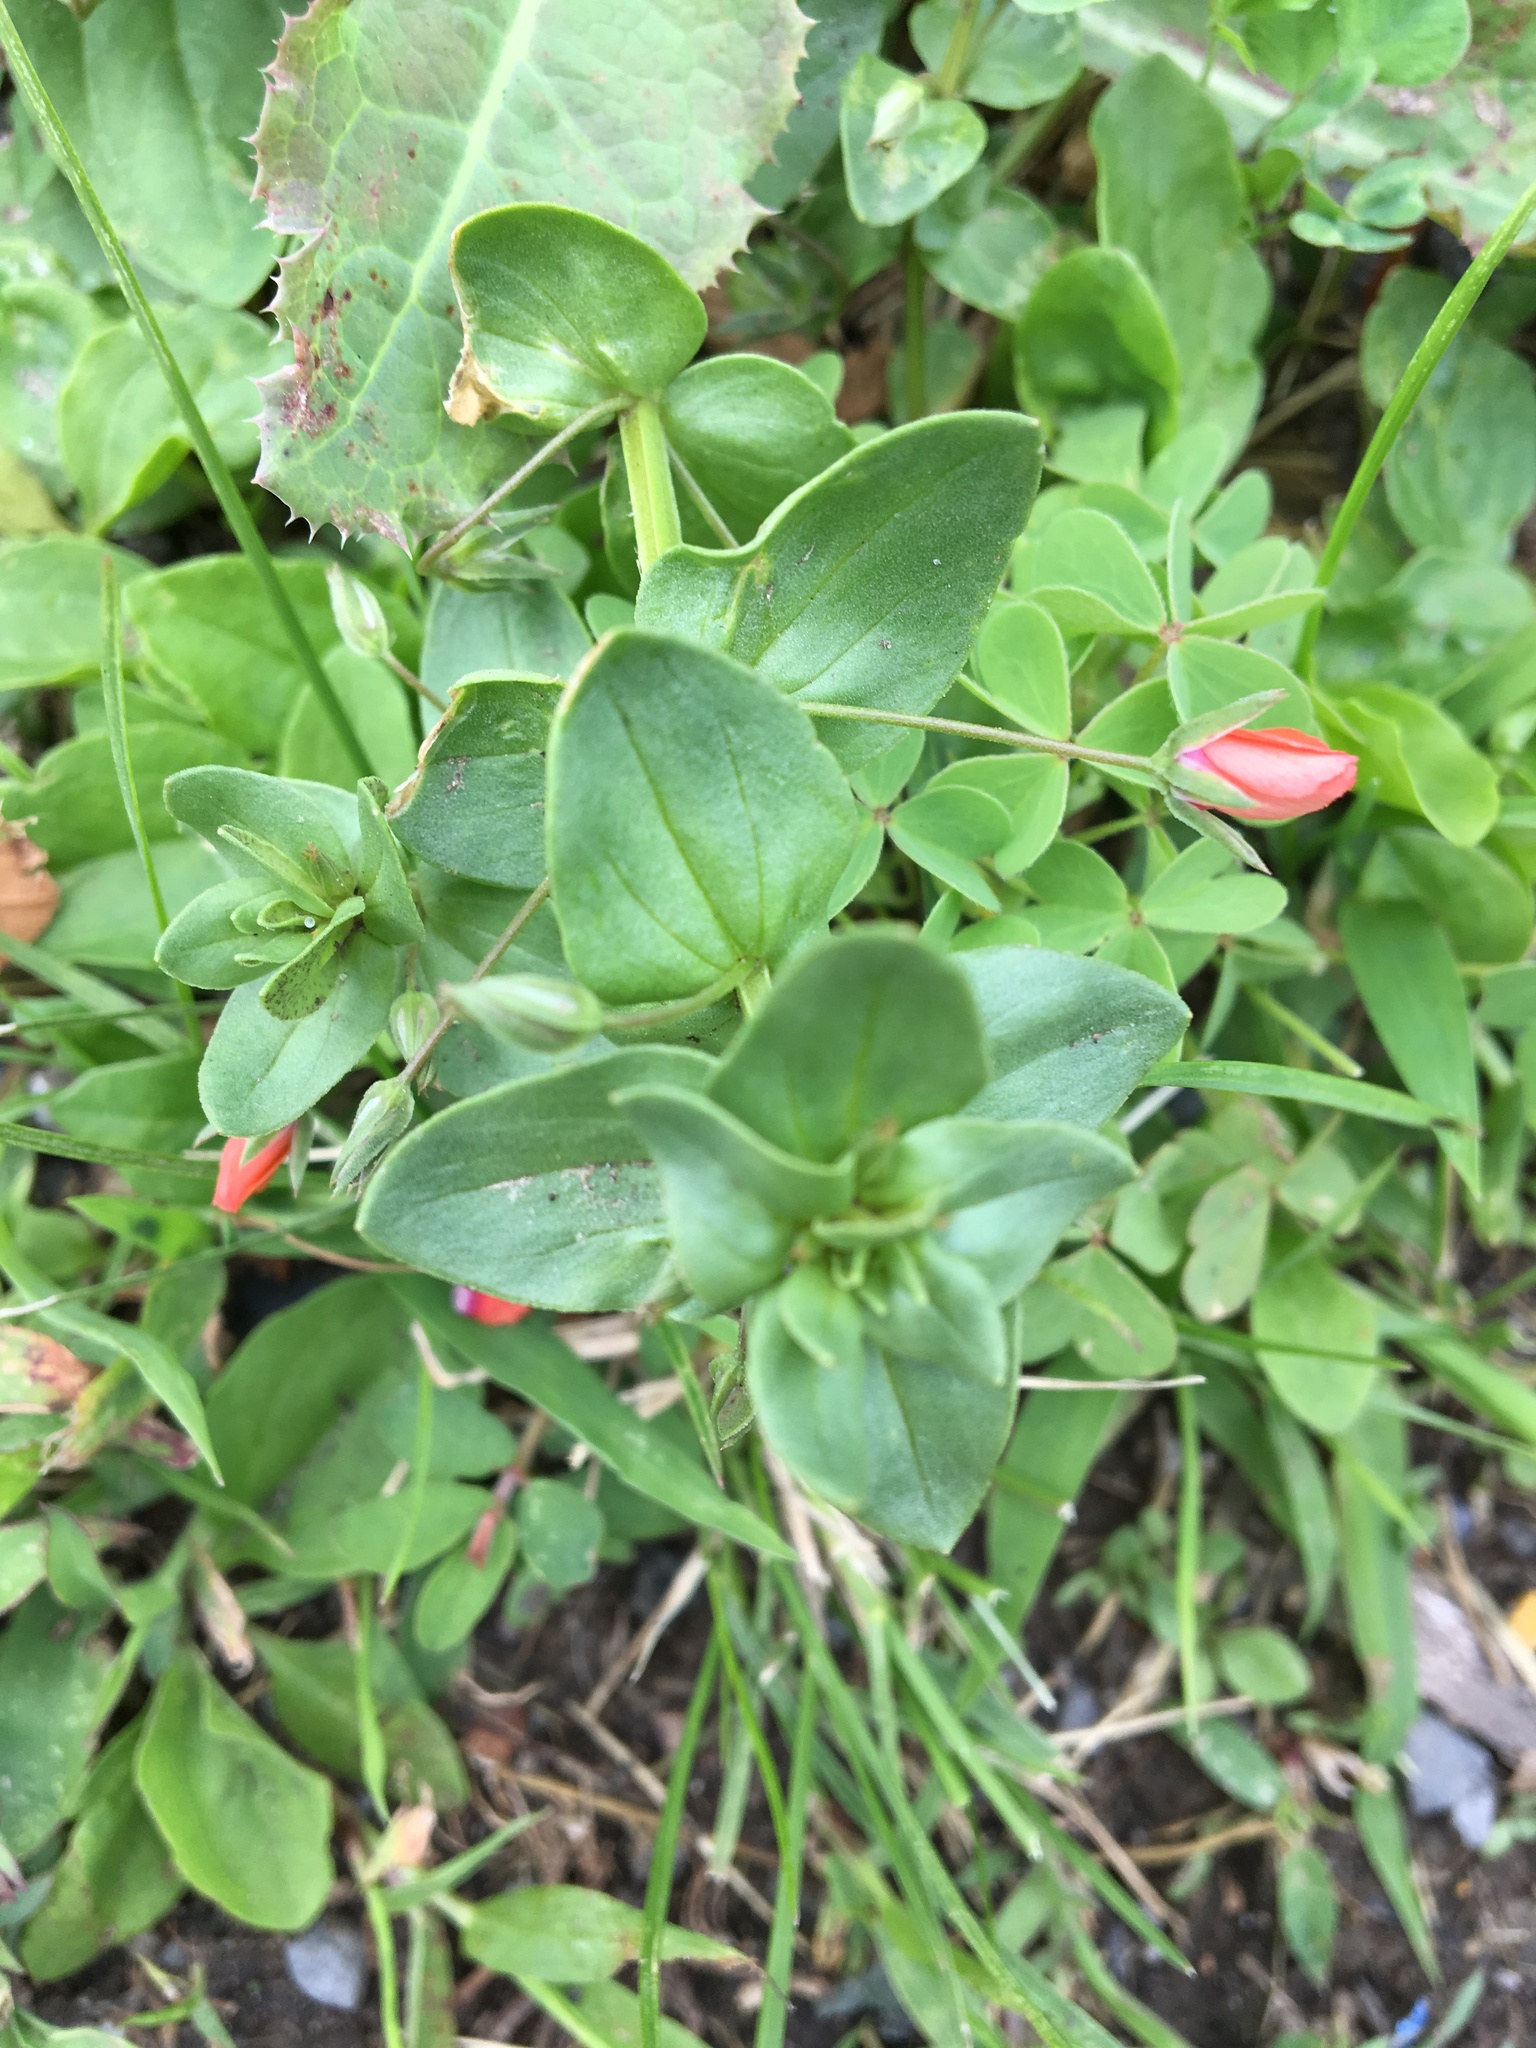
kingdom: Plantae
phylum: Tracheophyta
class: Magnoliopsida
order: Ericales
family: Primulaceae
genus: Lysimachia
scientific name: Lysimachia arvensis
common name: Scarlet pimpernel
